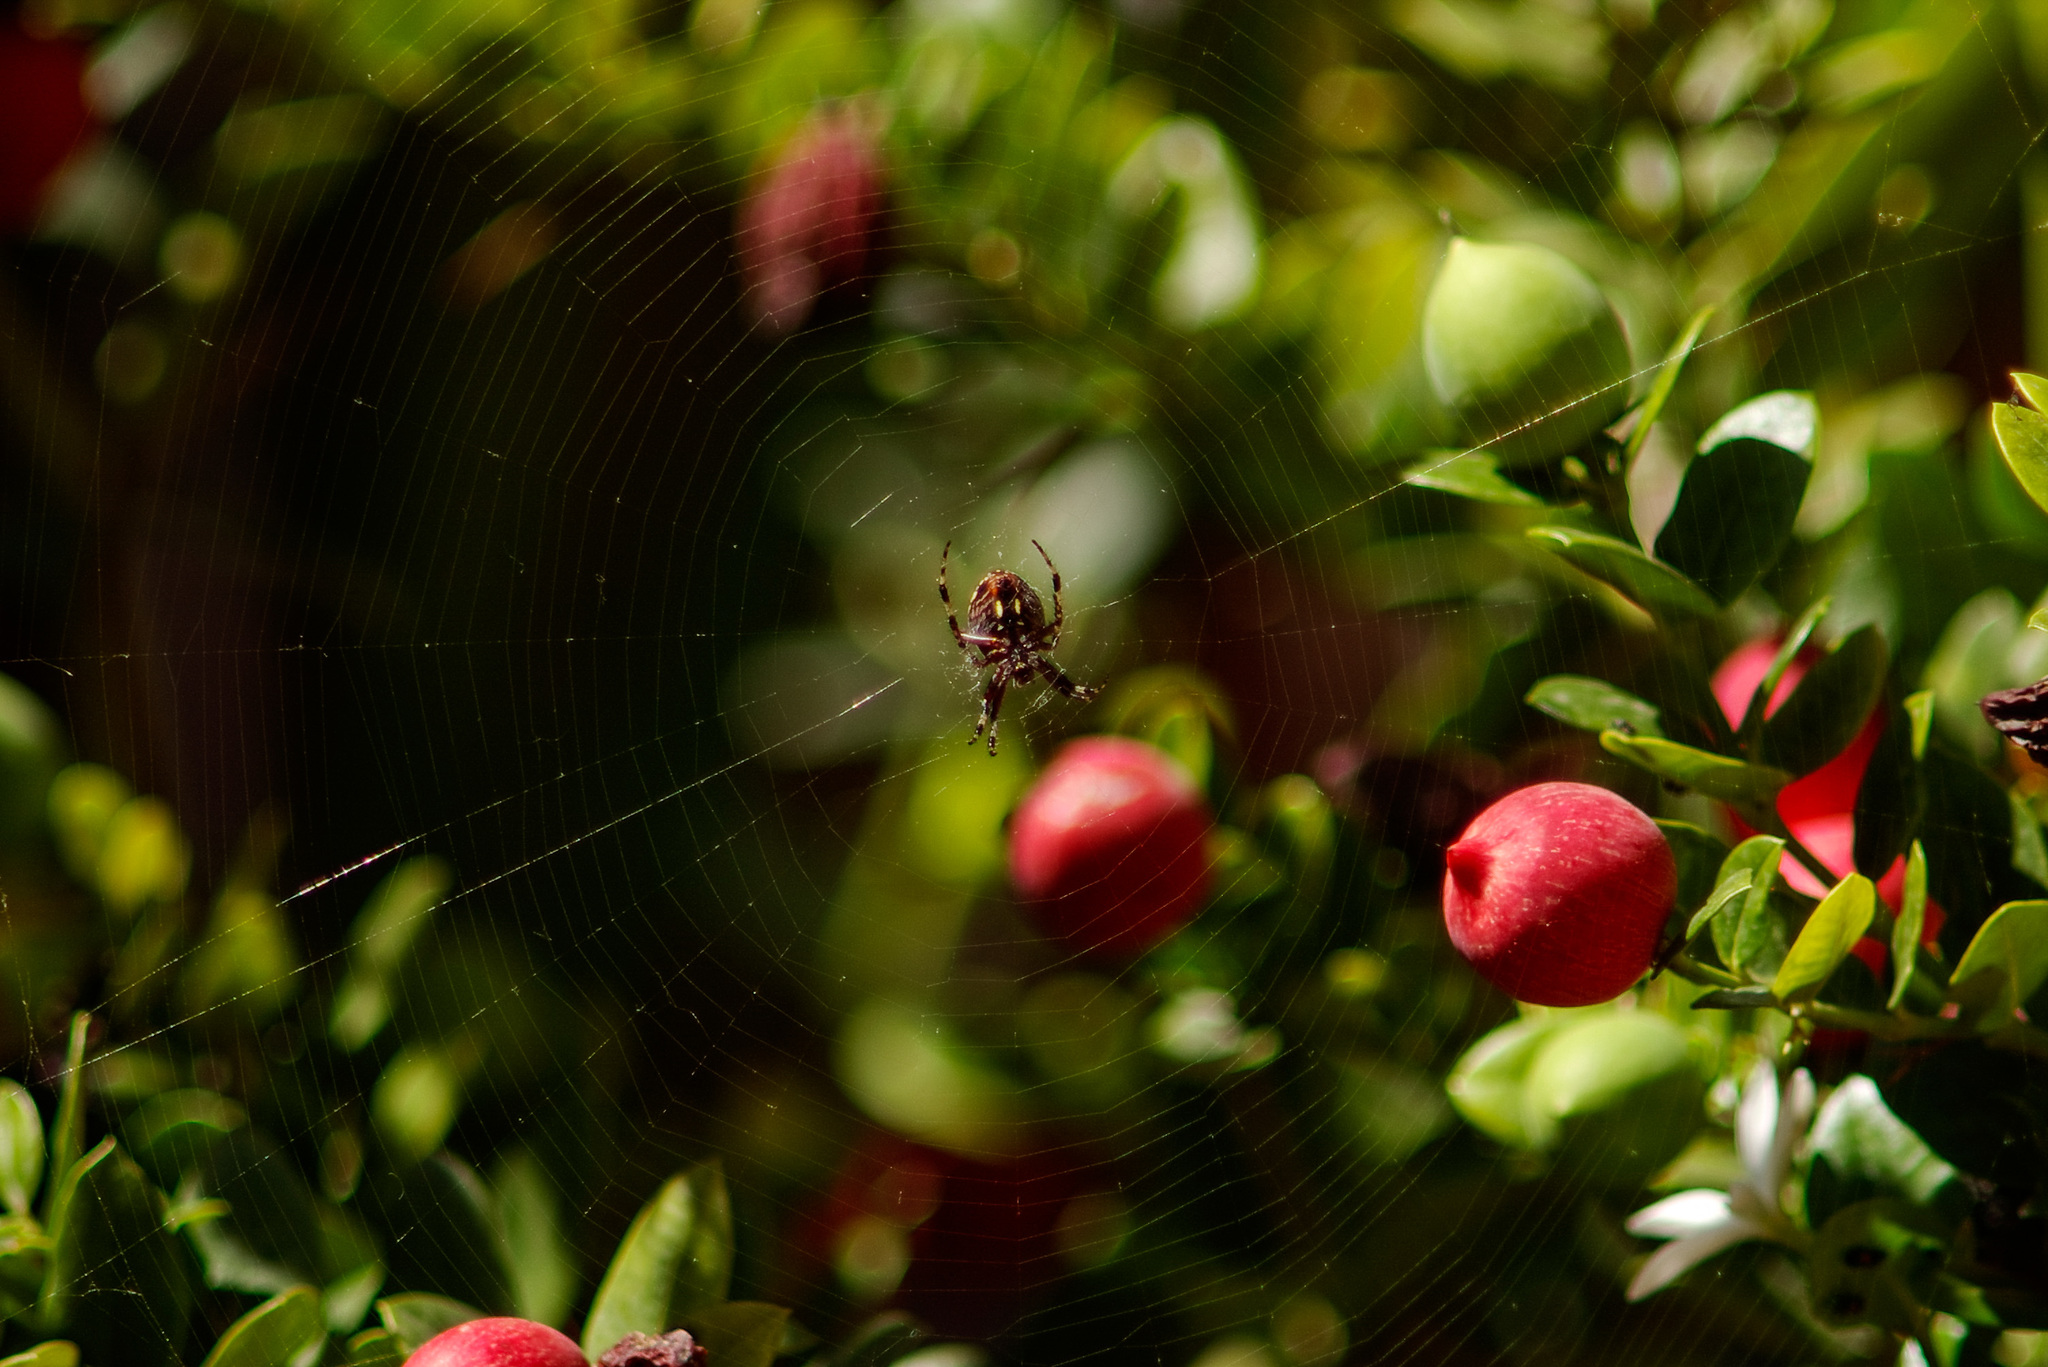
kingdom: Animalia
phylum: Arthropoda
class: Arachnida
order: Araneae
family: Araneidae
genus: Neoscona
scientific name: Neoscona oaxacensis
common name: Orb weavers
